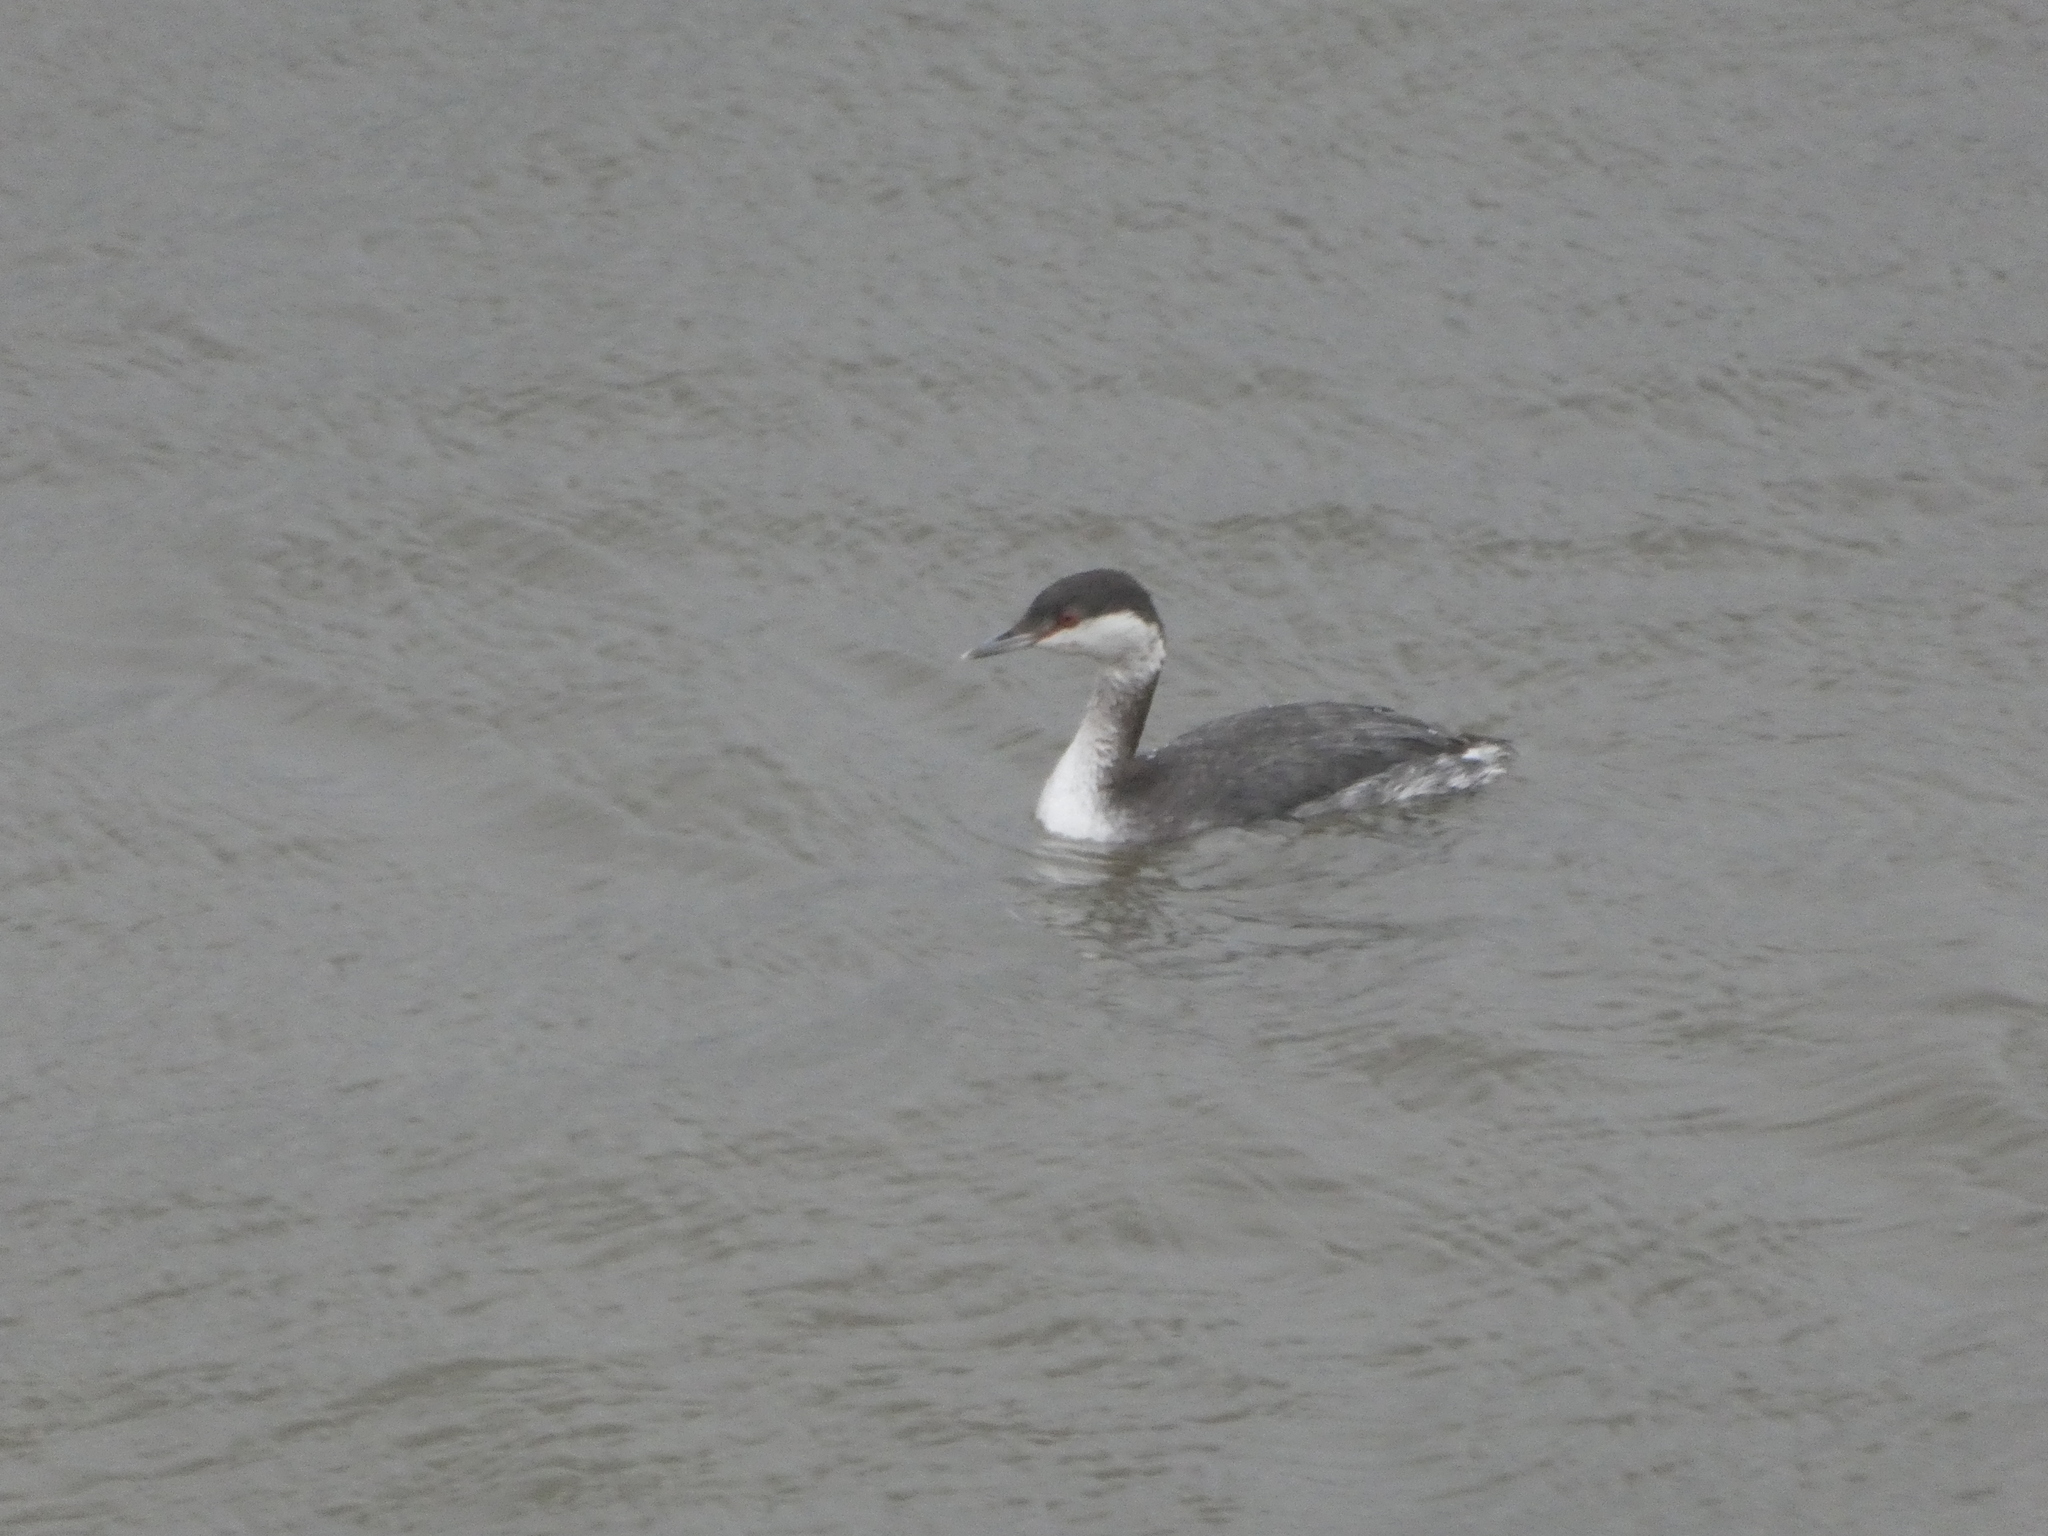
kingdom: Animalia
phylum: Chordata
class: Aves
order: Podicipediformes
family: Podicipedidae
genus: Podiceps
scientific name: Podiceps auritus
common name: Horned grebe
